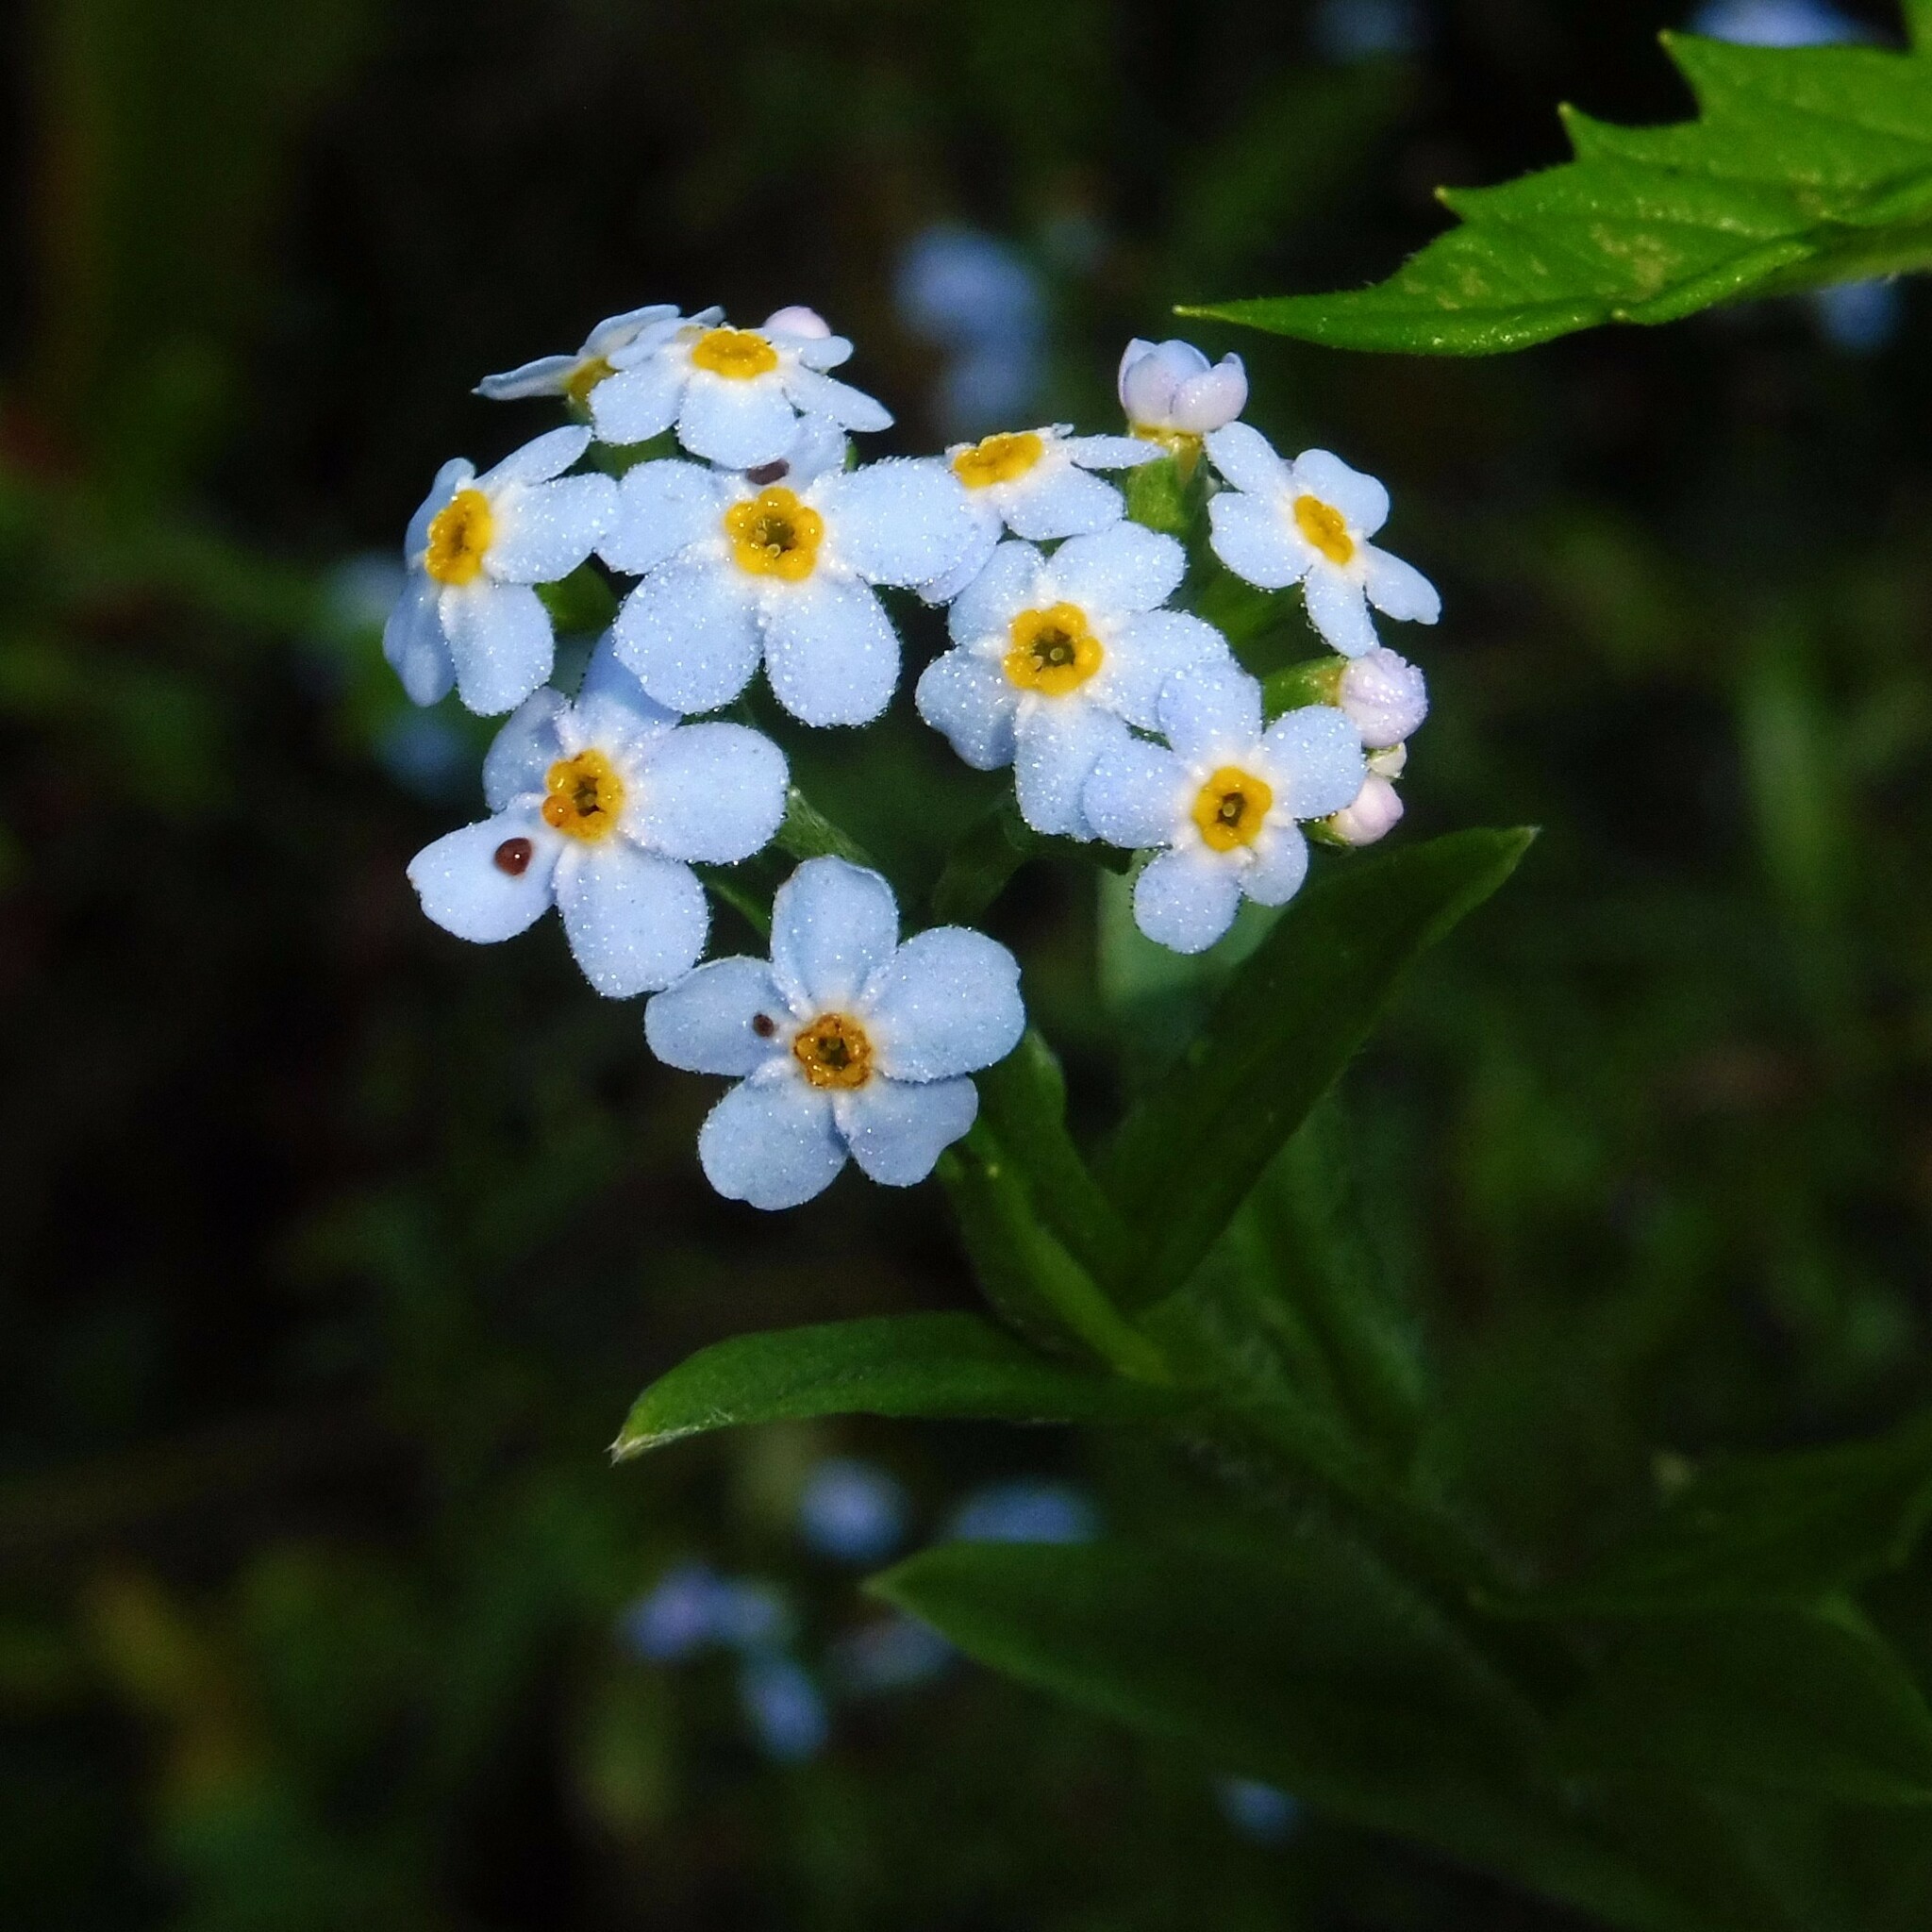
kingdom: Plantae
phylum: Tracheophyta
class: Magnoliopsida
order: Boraginales
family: Boraginaceae
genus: Myosotis
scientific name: Myosotis scorpioides
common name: Water forget-me-not
